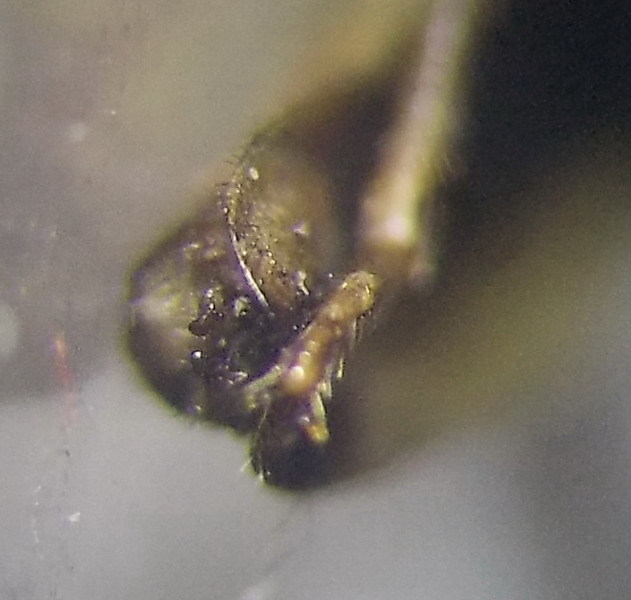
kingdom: Animalia
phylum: Arthropoda
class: Insecta
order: Hemiptera
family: Rhopalidae
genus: Myrmus
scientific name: Myrmus miriformis
